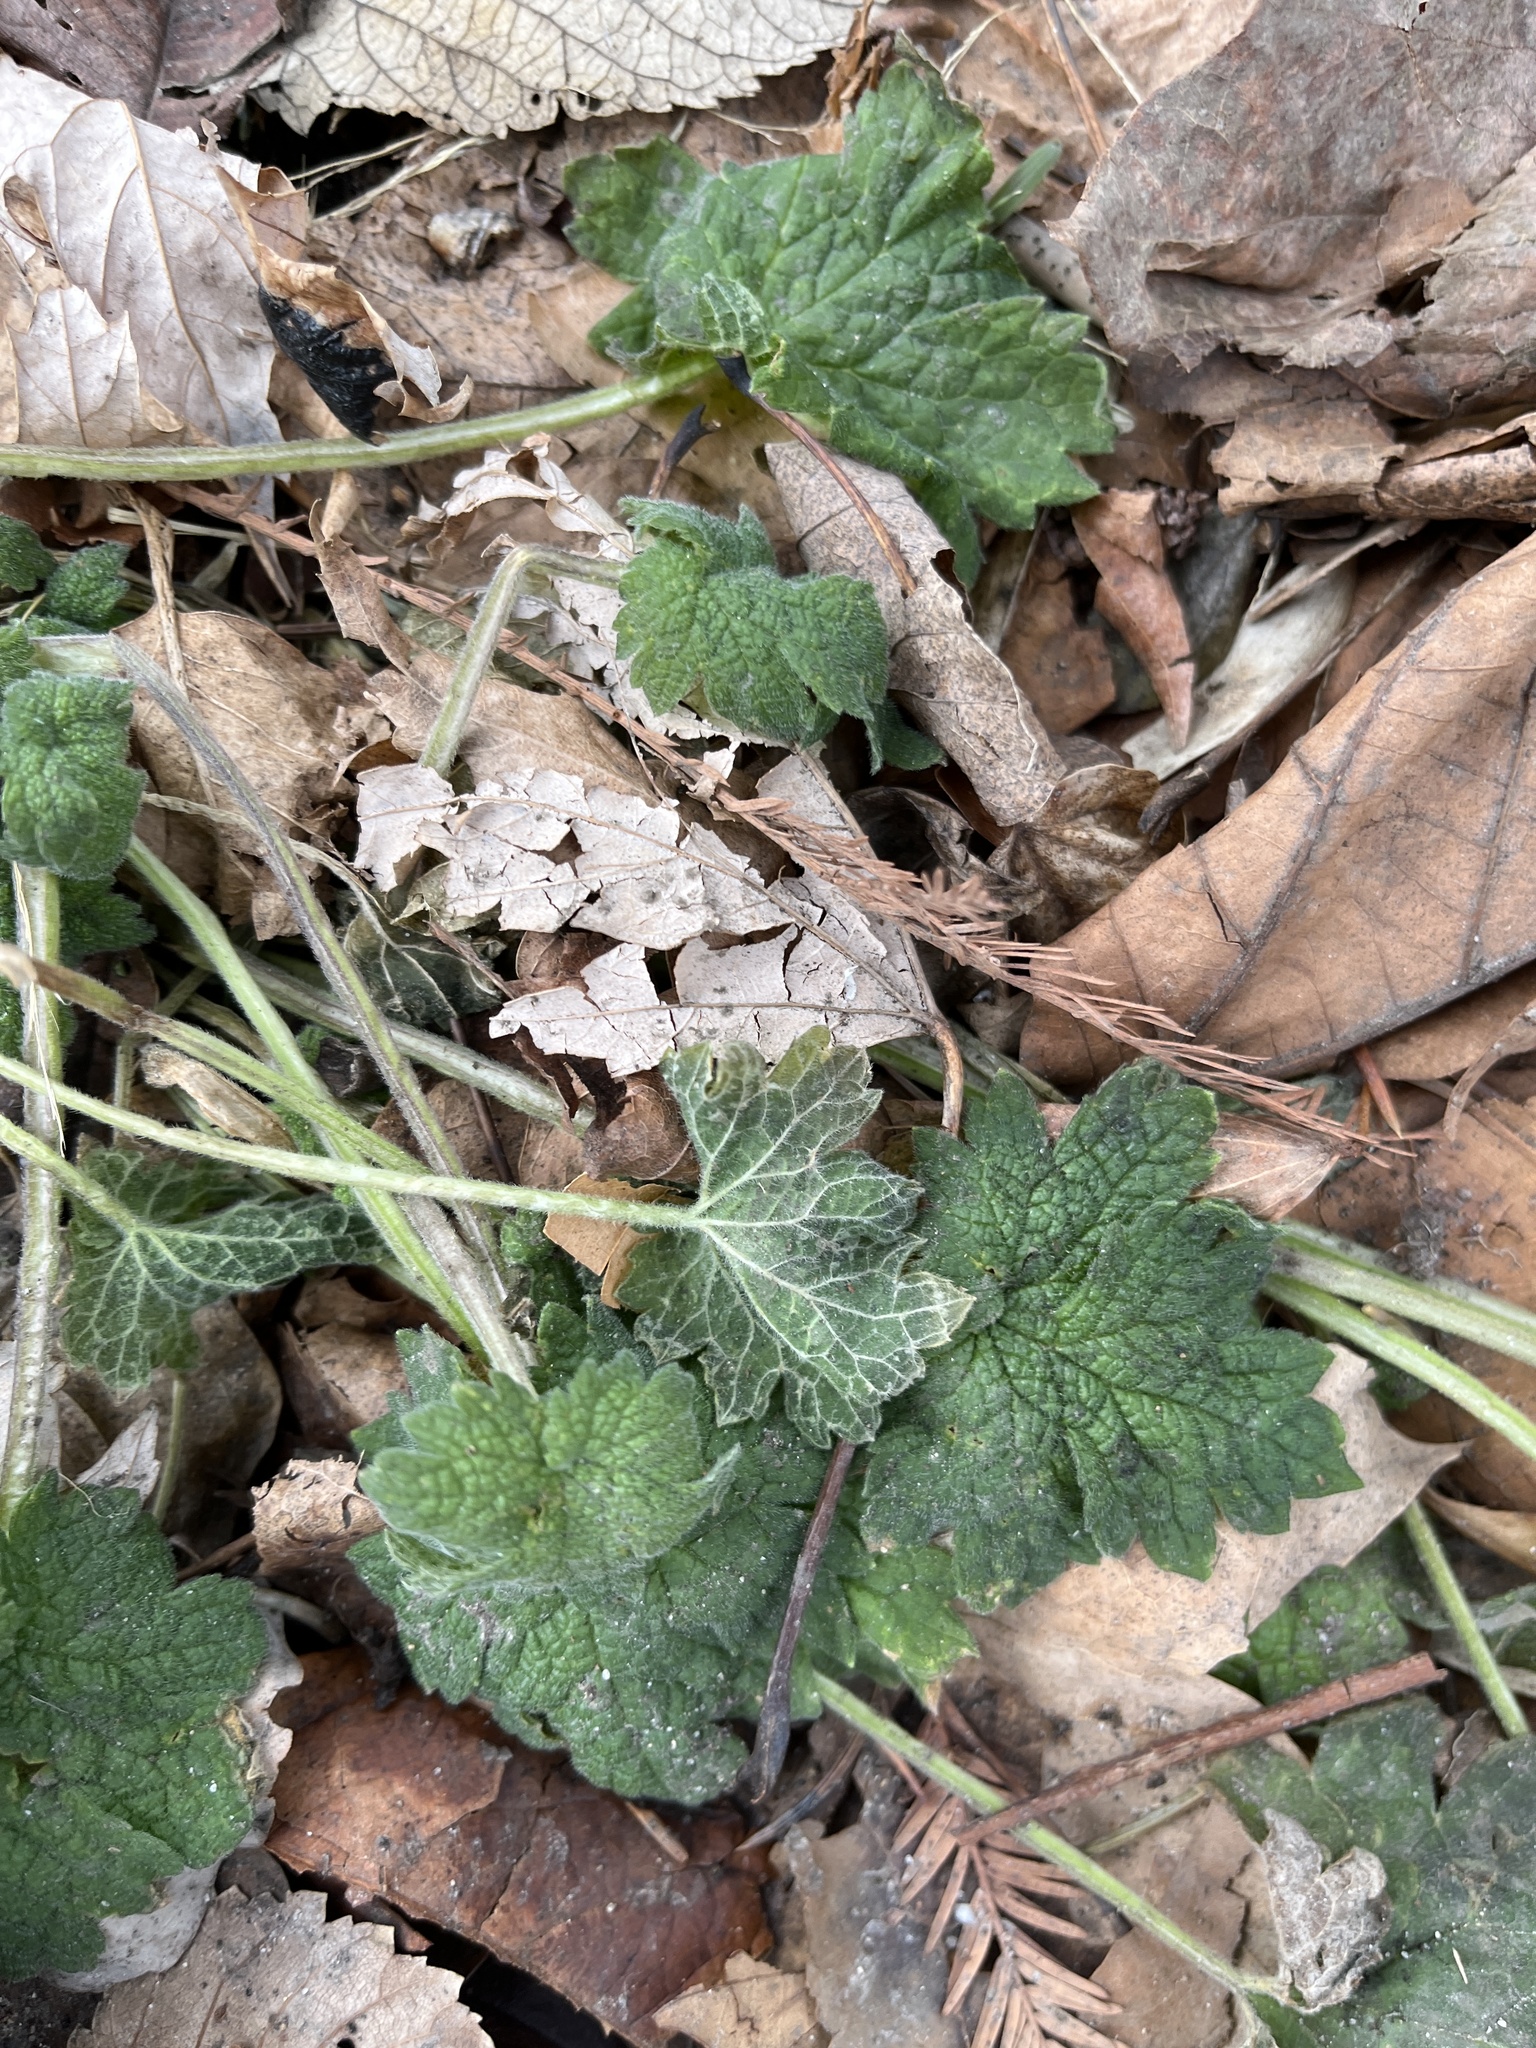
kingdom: Plantae
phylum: Tracheophyta
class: Magnoliopsida
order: Lamiales
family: Lamiaceae
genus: Leonurus
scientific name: Leonurus cardiaca
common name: Motherwort
